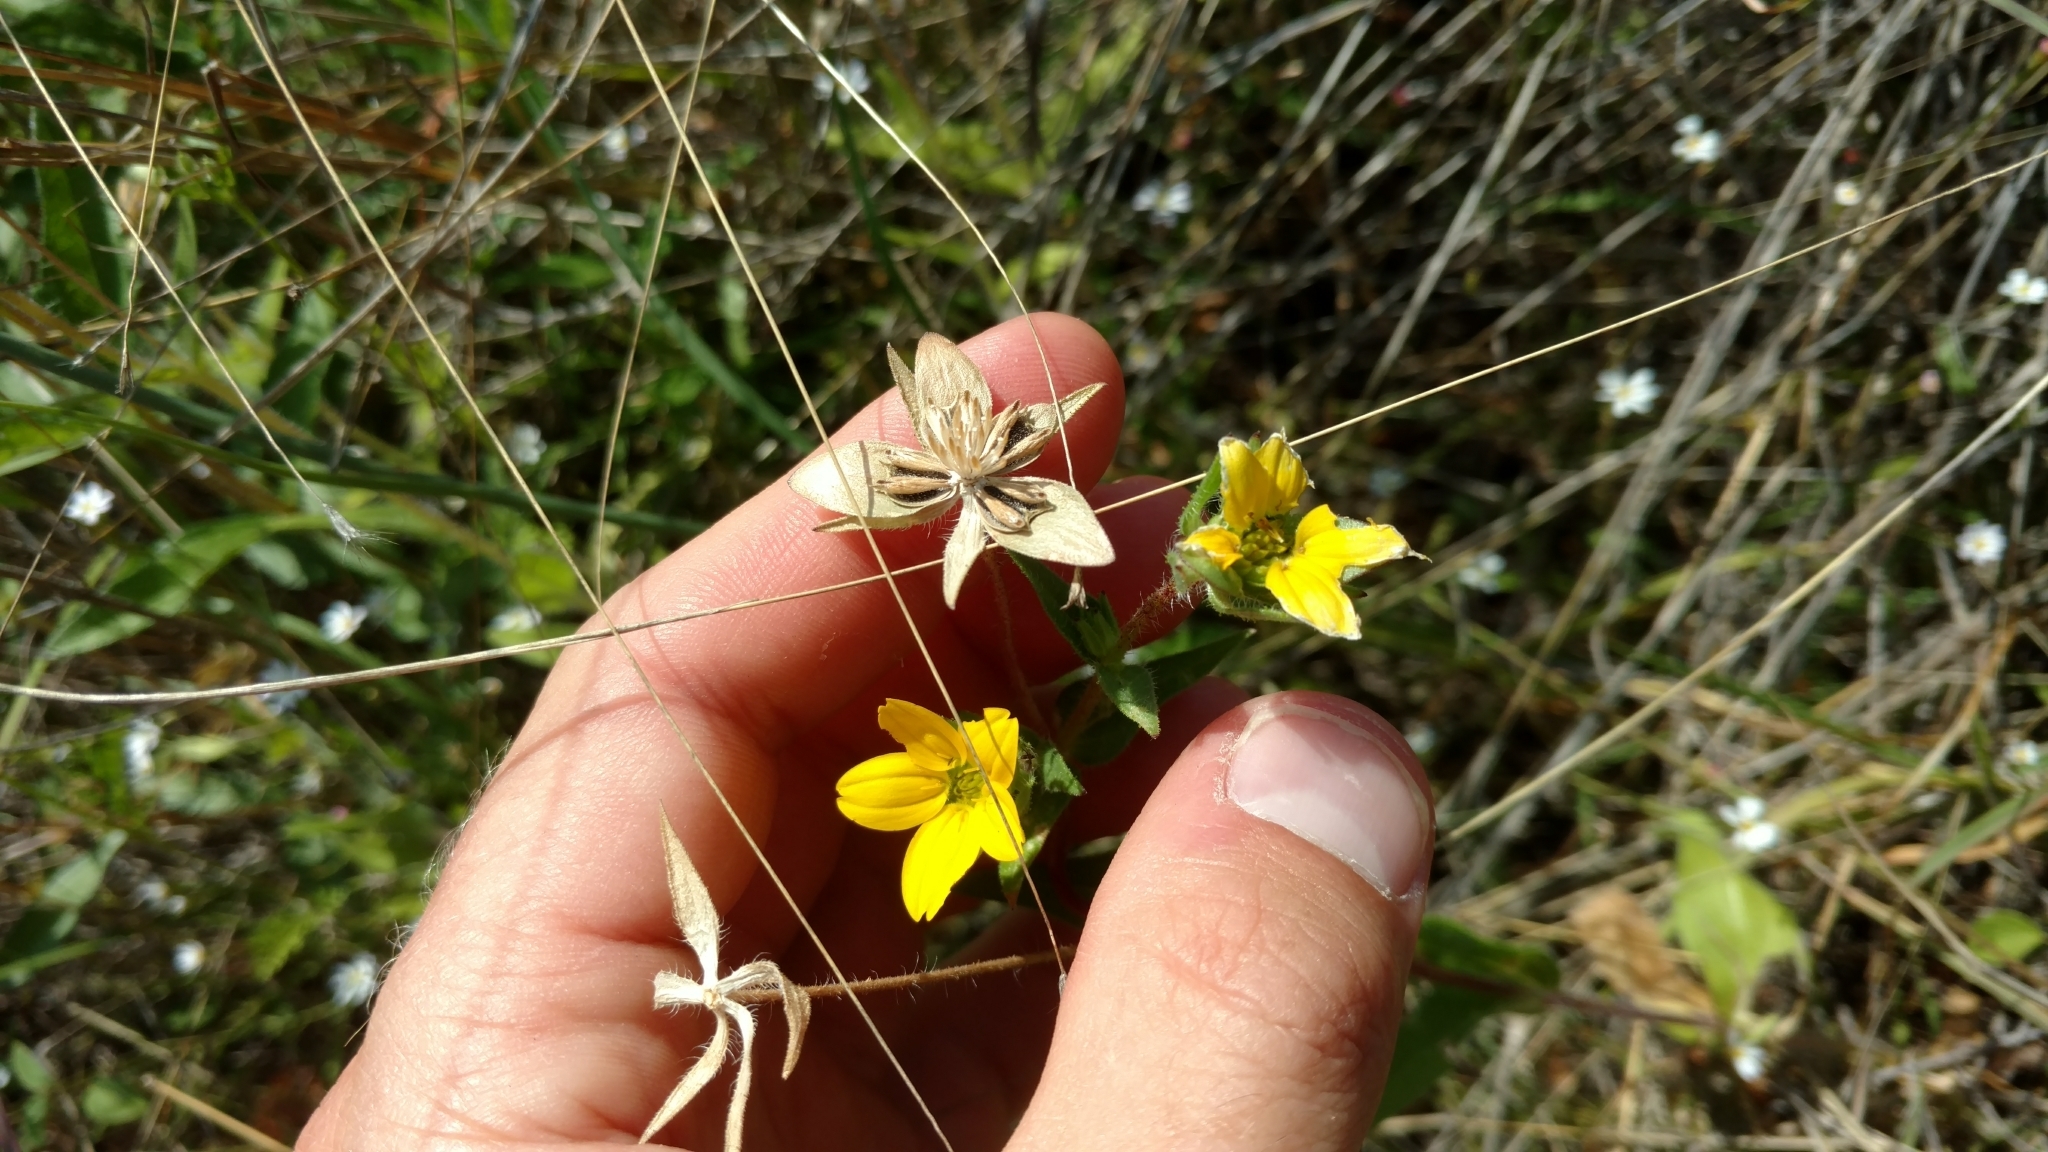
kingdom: Plantae
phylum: Tracheophyta
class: Magnoliopsida
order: Asterales
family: Asteraceae
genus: Lindheimera
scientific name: Lindheimera texana
